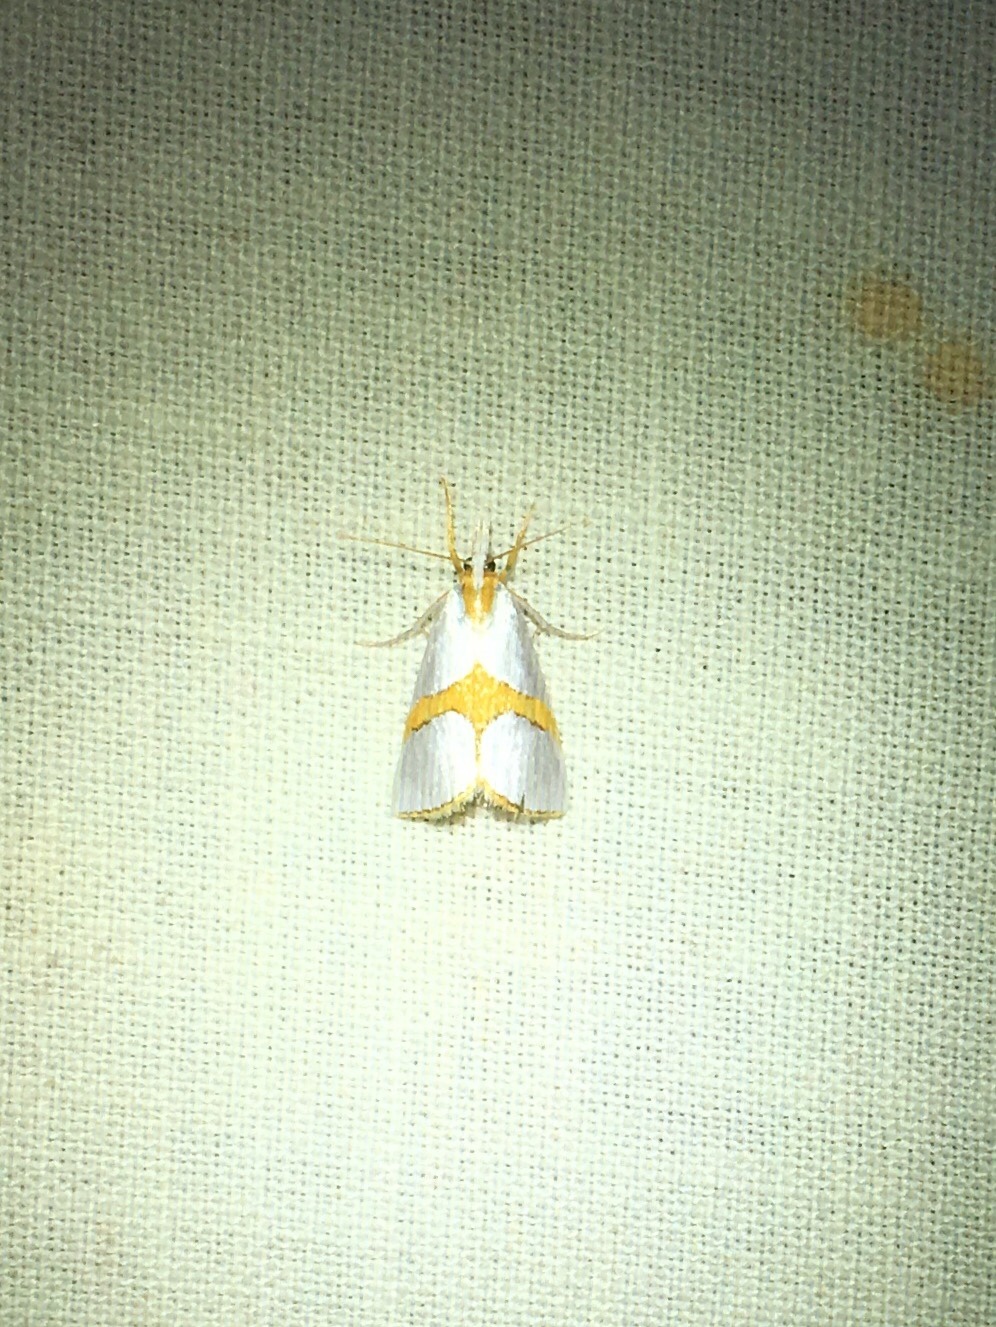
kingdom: Animalia
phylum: Arthropoda
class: Insecta
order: Lepidoptera
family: Crambidae
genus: Argyria
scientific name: Argyria auratella
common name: Curve-lined argyria moth
